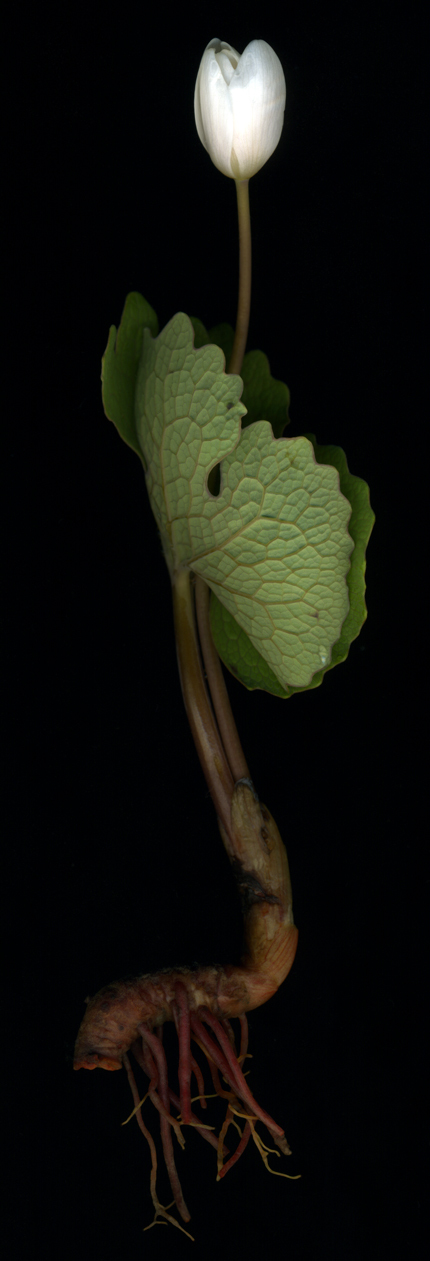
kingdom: Plantae
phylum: Tracheophyta
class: Magnoliopsida
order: Ranunculales
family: Papaveraceae
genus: Sanguinaria
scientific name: Sanguinaria canadensis
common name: Bloodroot
